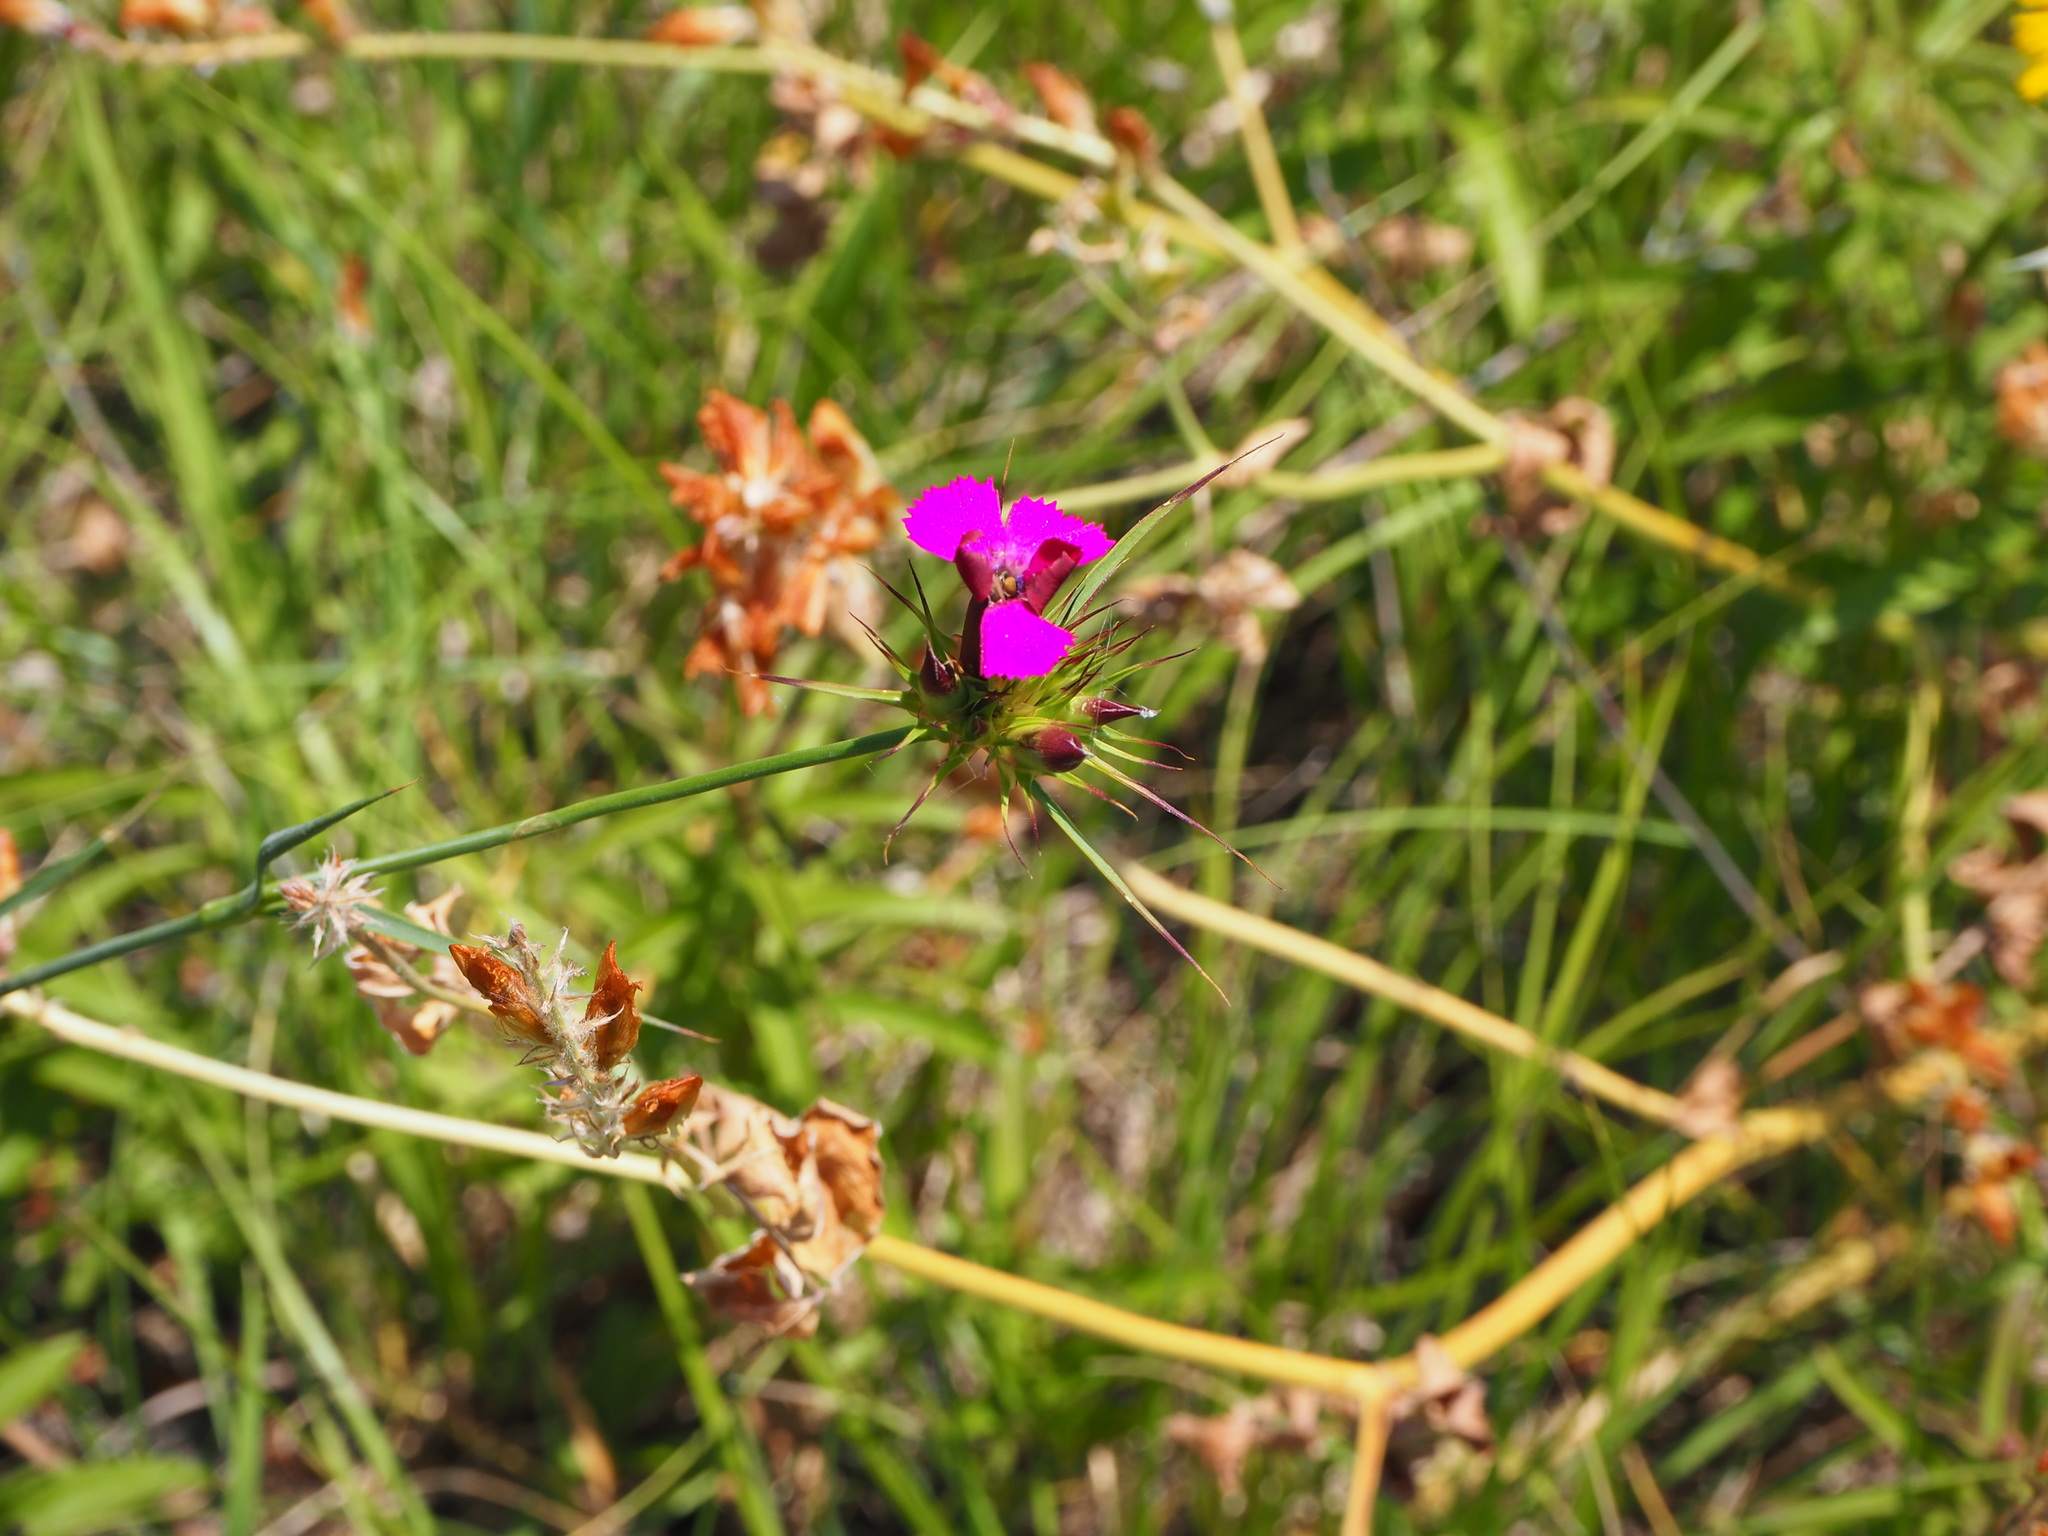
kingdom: Plantae
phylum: Tracheophyta
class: Magnoliopsida
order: Caryophyllales
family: Caryophyllaceae
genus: Dianthus
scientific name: Dianthus balbisii
